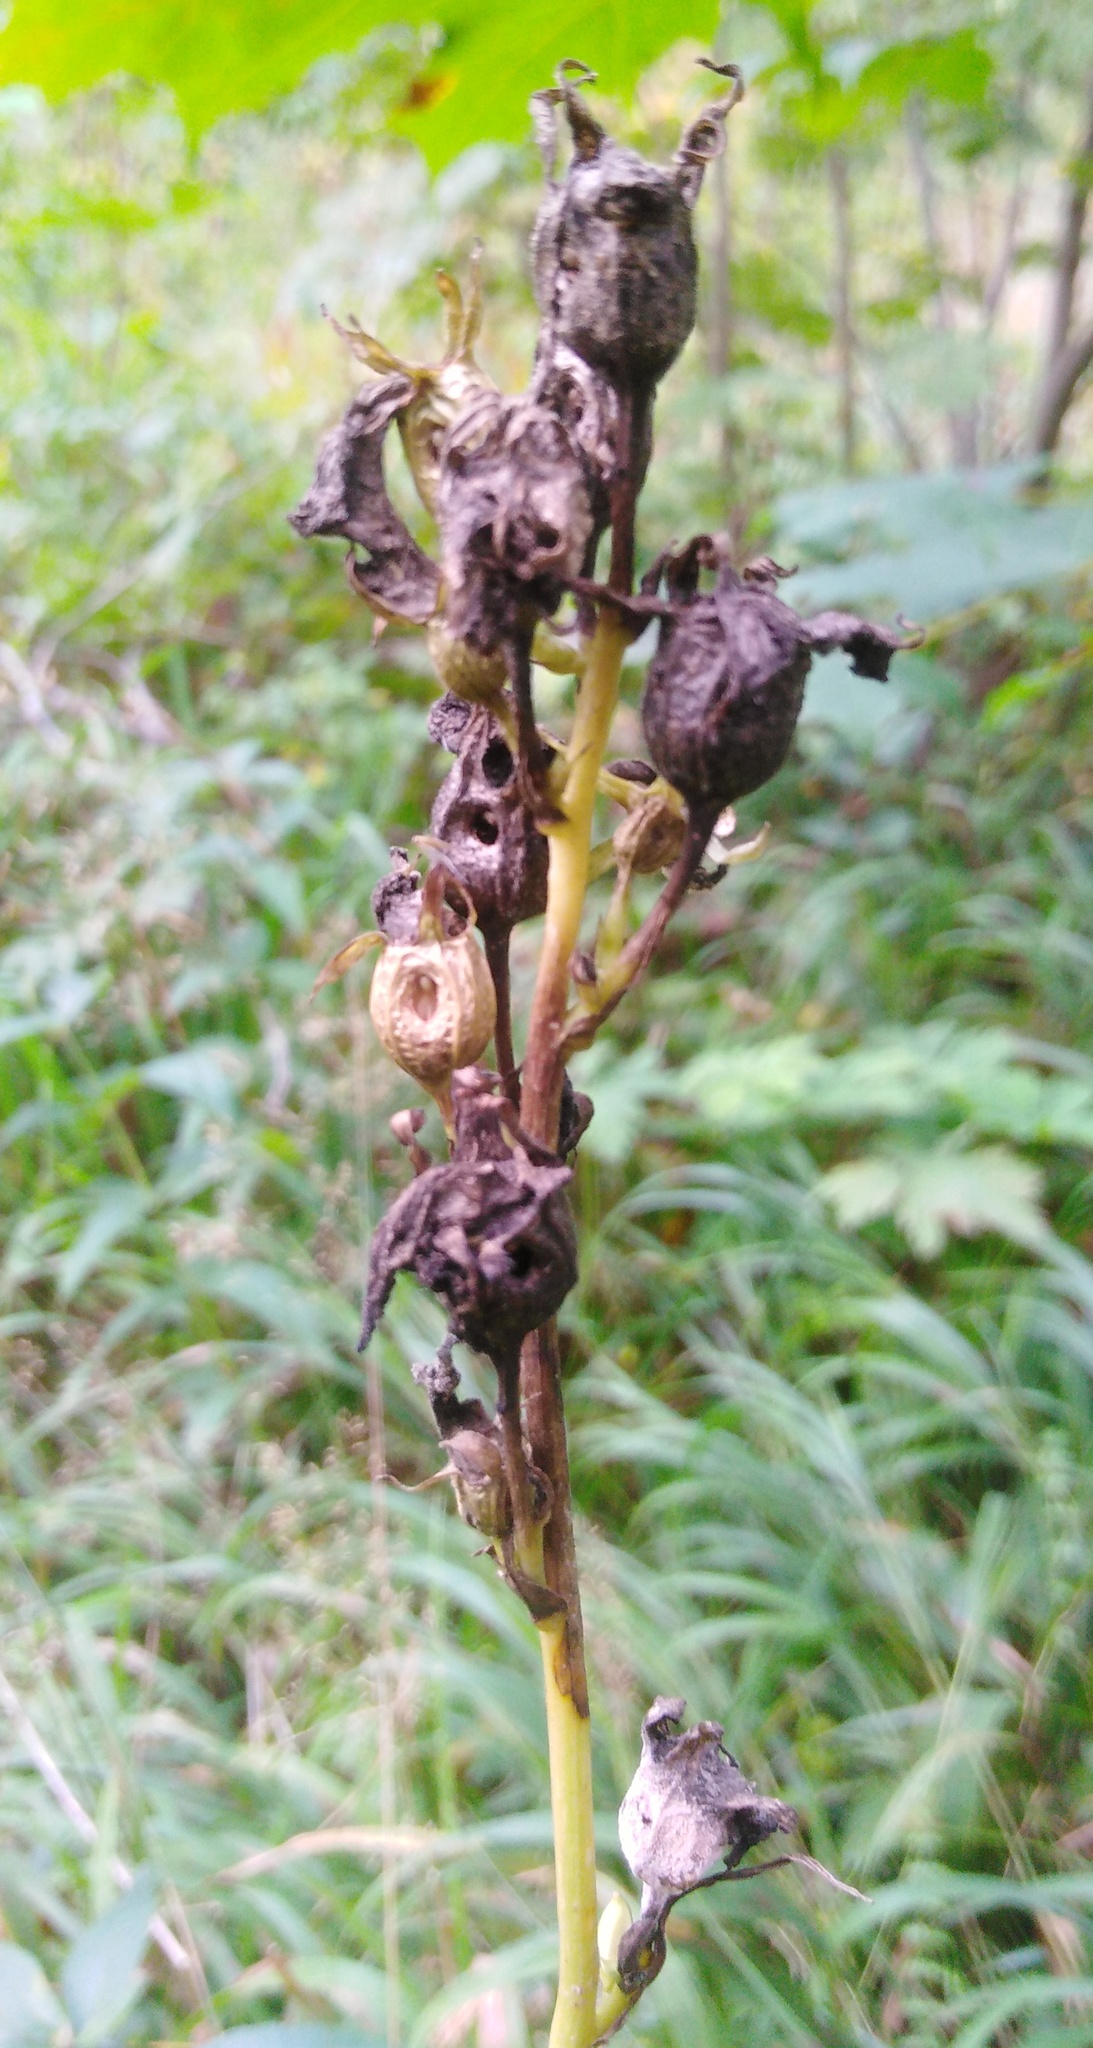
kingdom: Plantae
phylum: Tracheophyta
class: Magnoliopsida
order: Asterales
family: Campanulaceae
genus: Campanula
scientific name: Campanula persicifolia
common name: Peach-leaved bellflower
